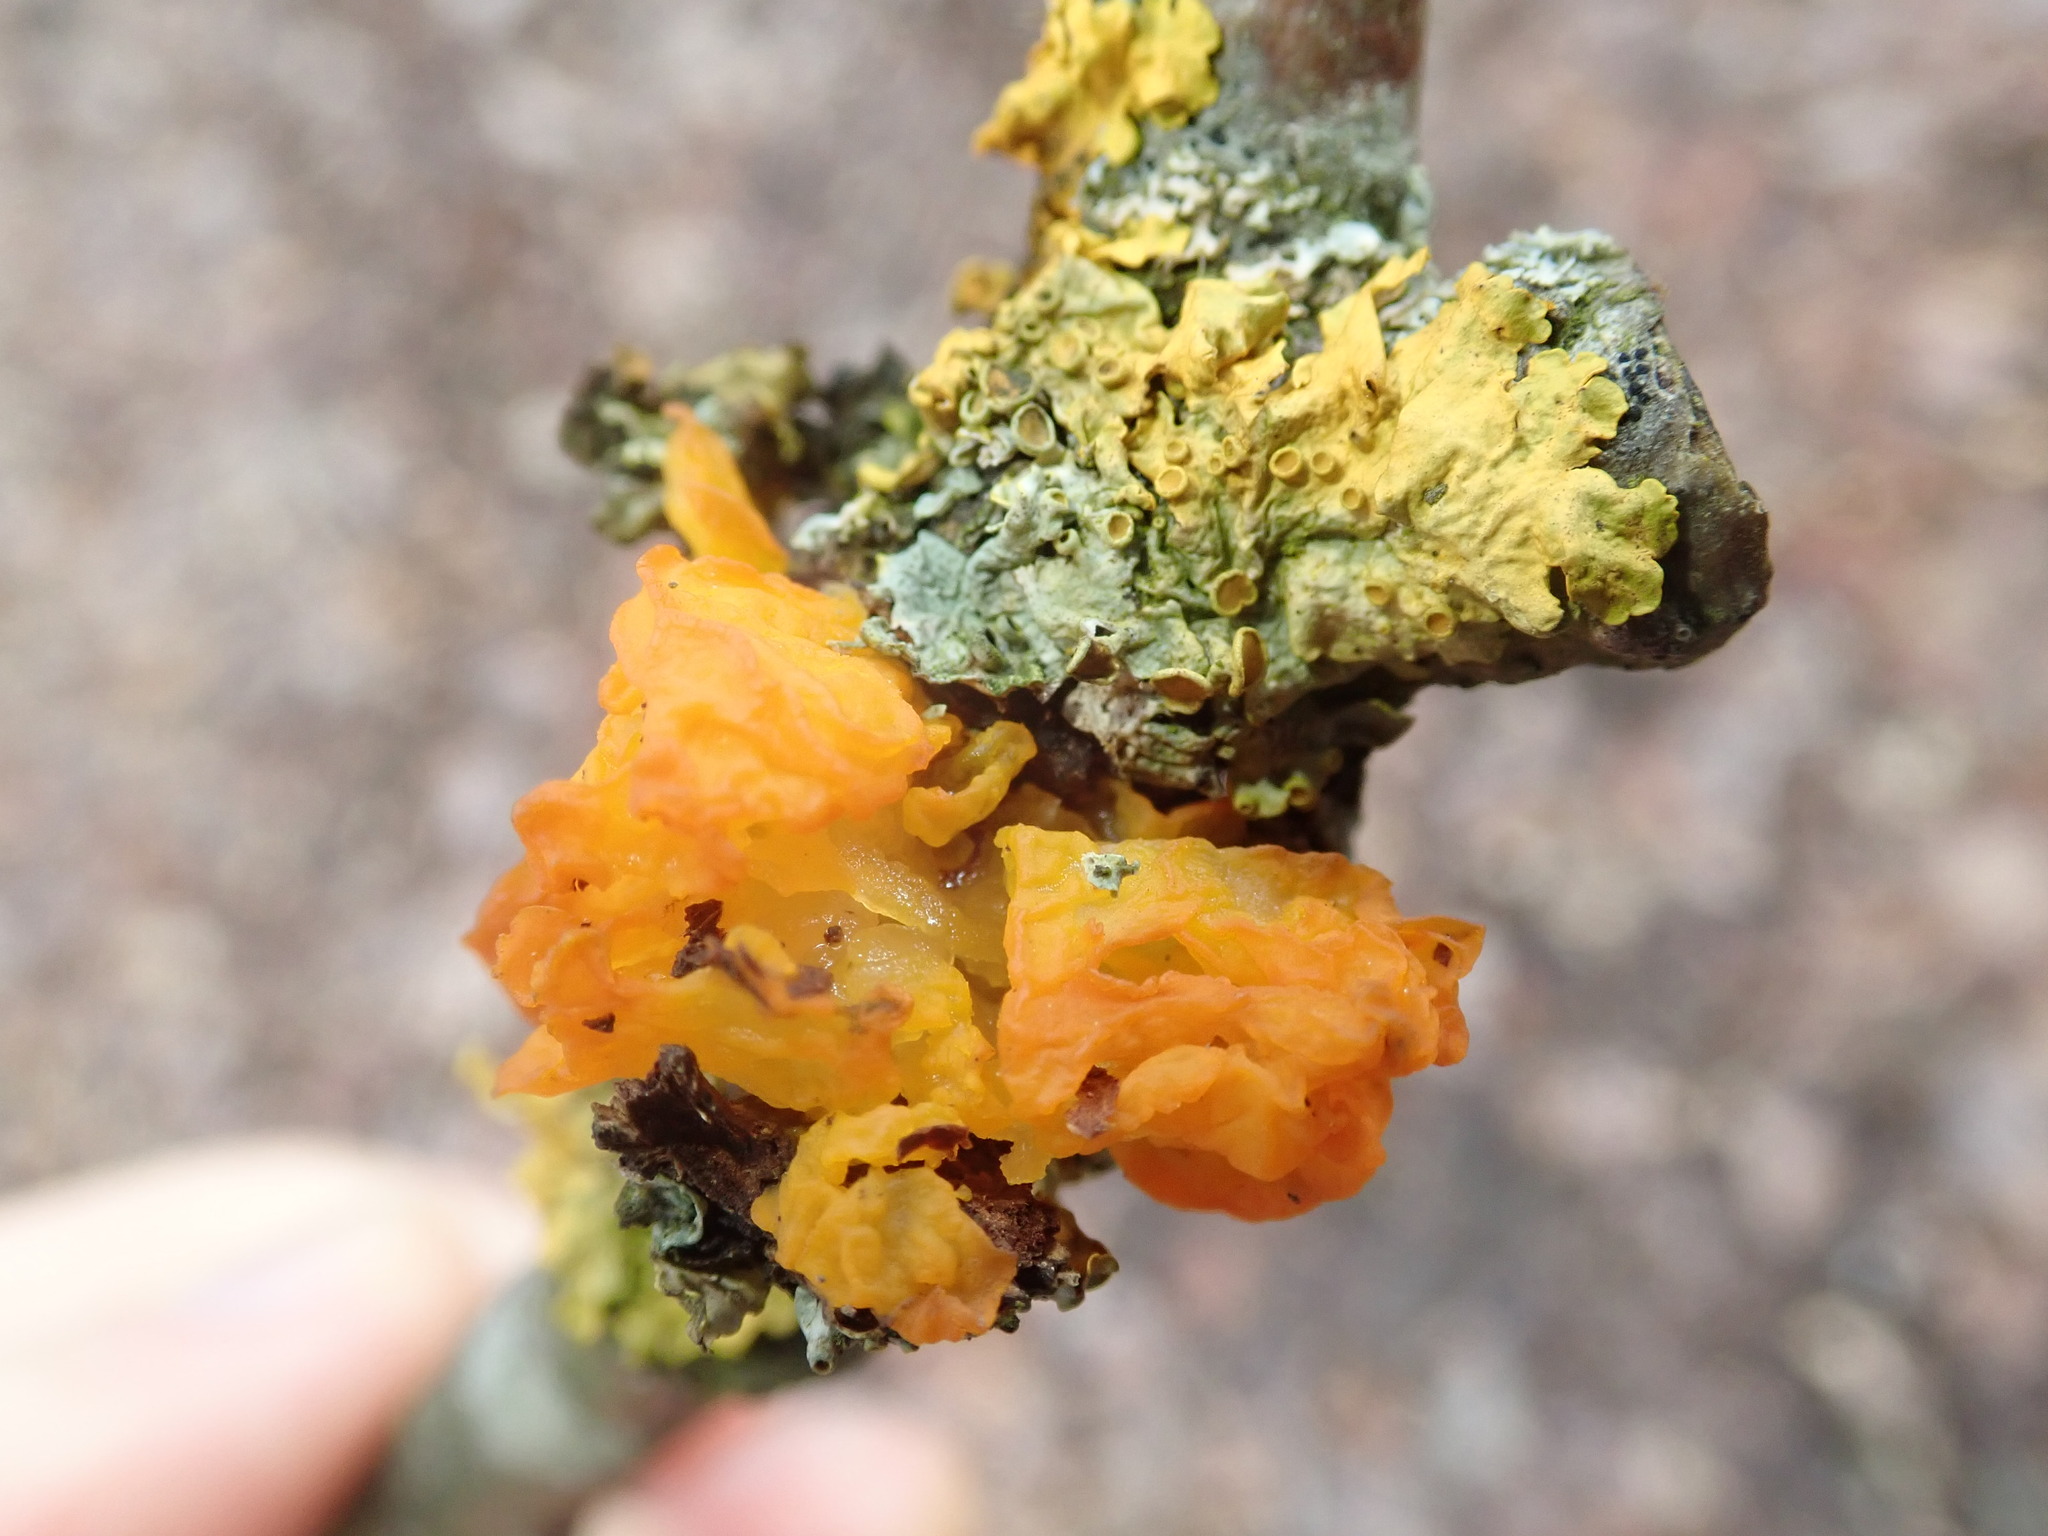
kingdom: Fungi
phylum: Basidiomycota
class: Tremellomycetes
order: Tremellales
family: Tremellaceae
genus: Tremella
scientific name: Tremella mesenterica
